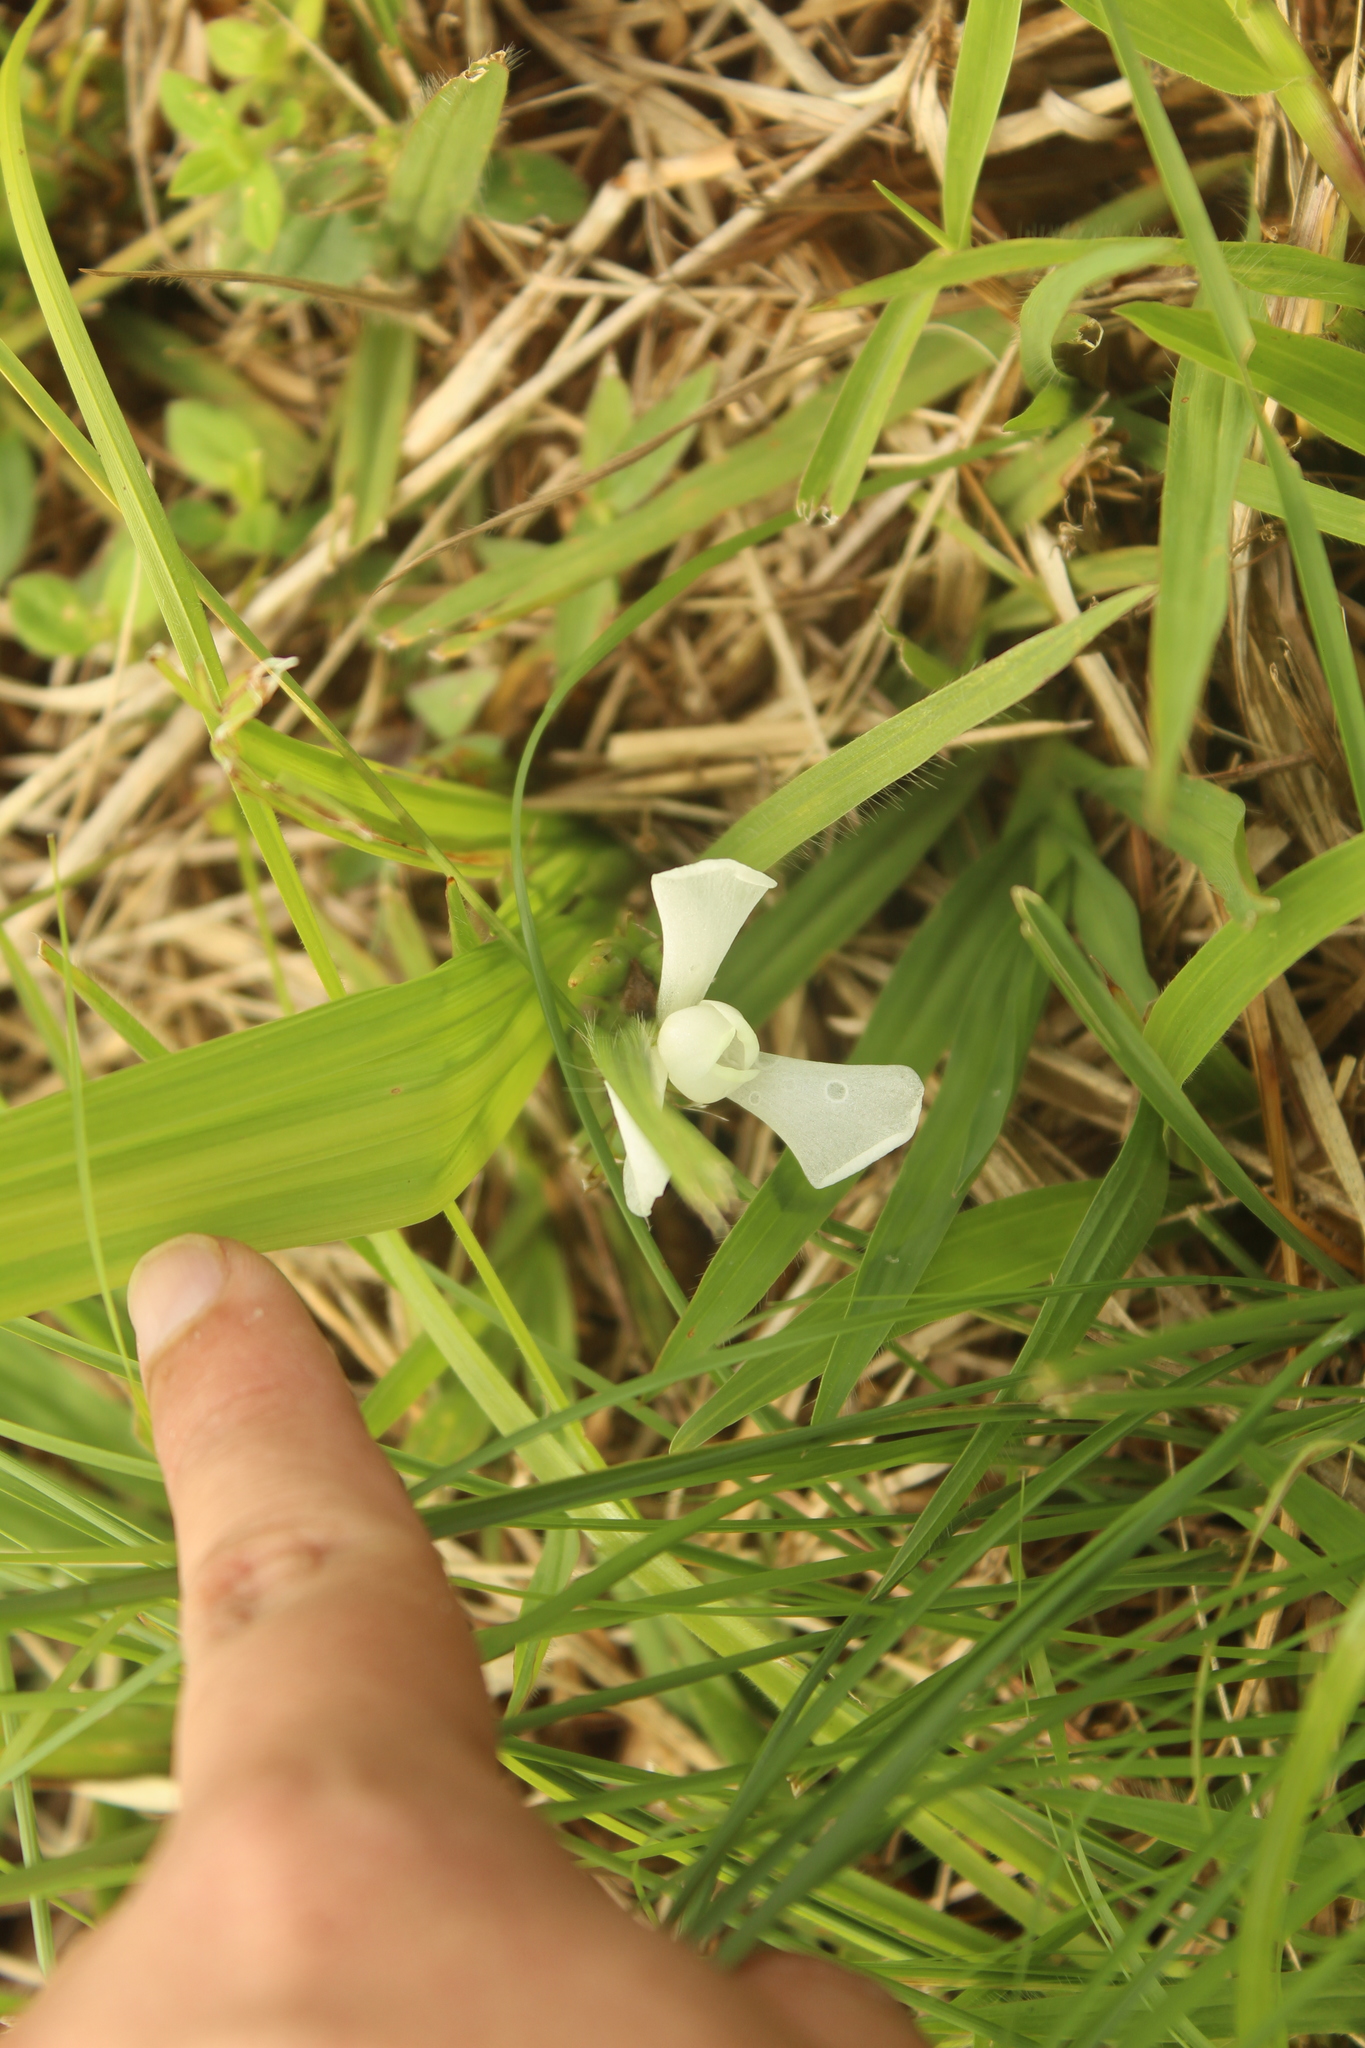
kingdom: Plantae
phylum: Tracheophyta
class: Liliopsida
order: Asparagales
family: Iridaceae
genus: Cipura
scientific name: Cipura paludosa
